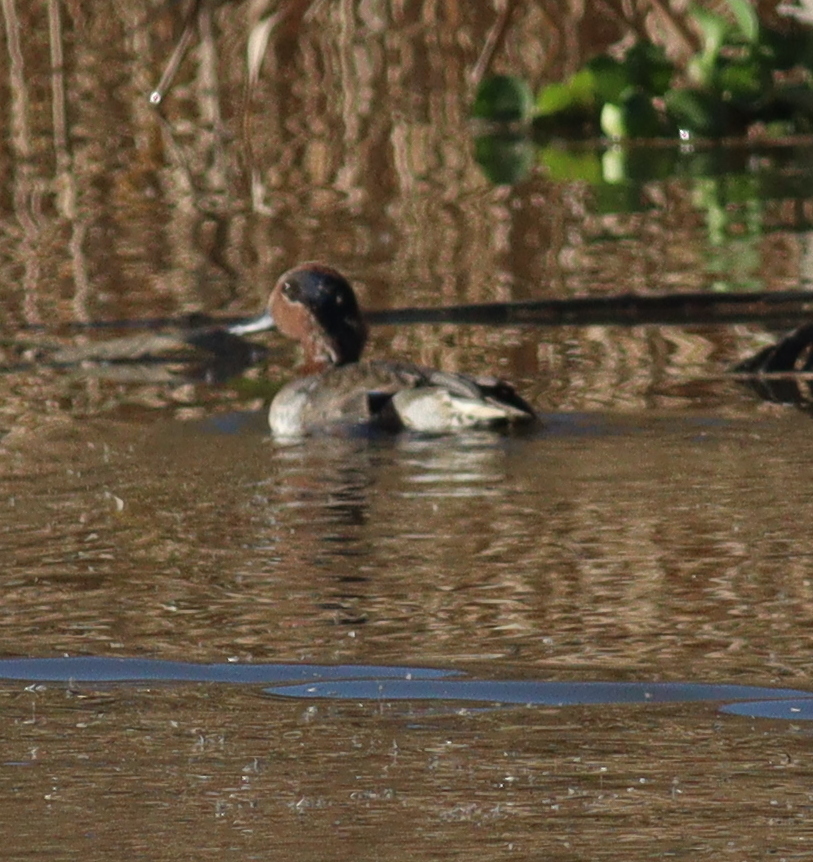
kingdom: Animalia
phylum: Chordata
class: Aves
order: Anseriformes
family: Anatidae
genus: Anas
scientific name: Anas crecca
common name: Eurasian teal
